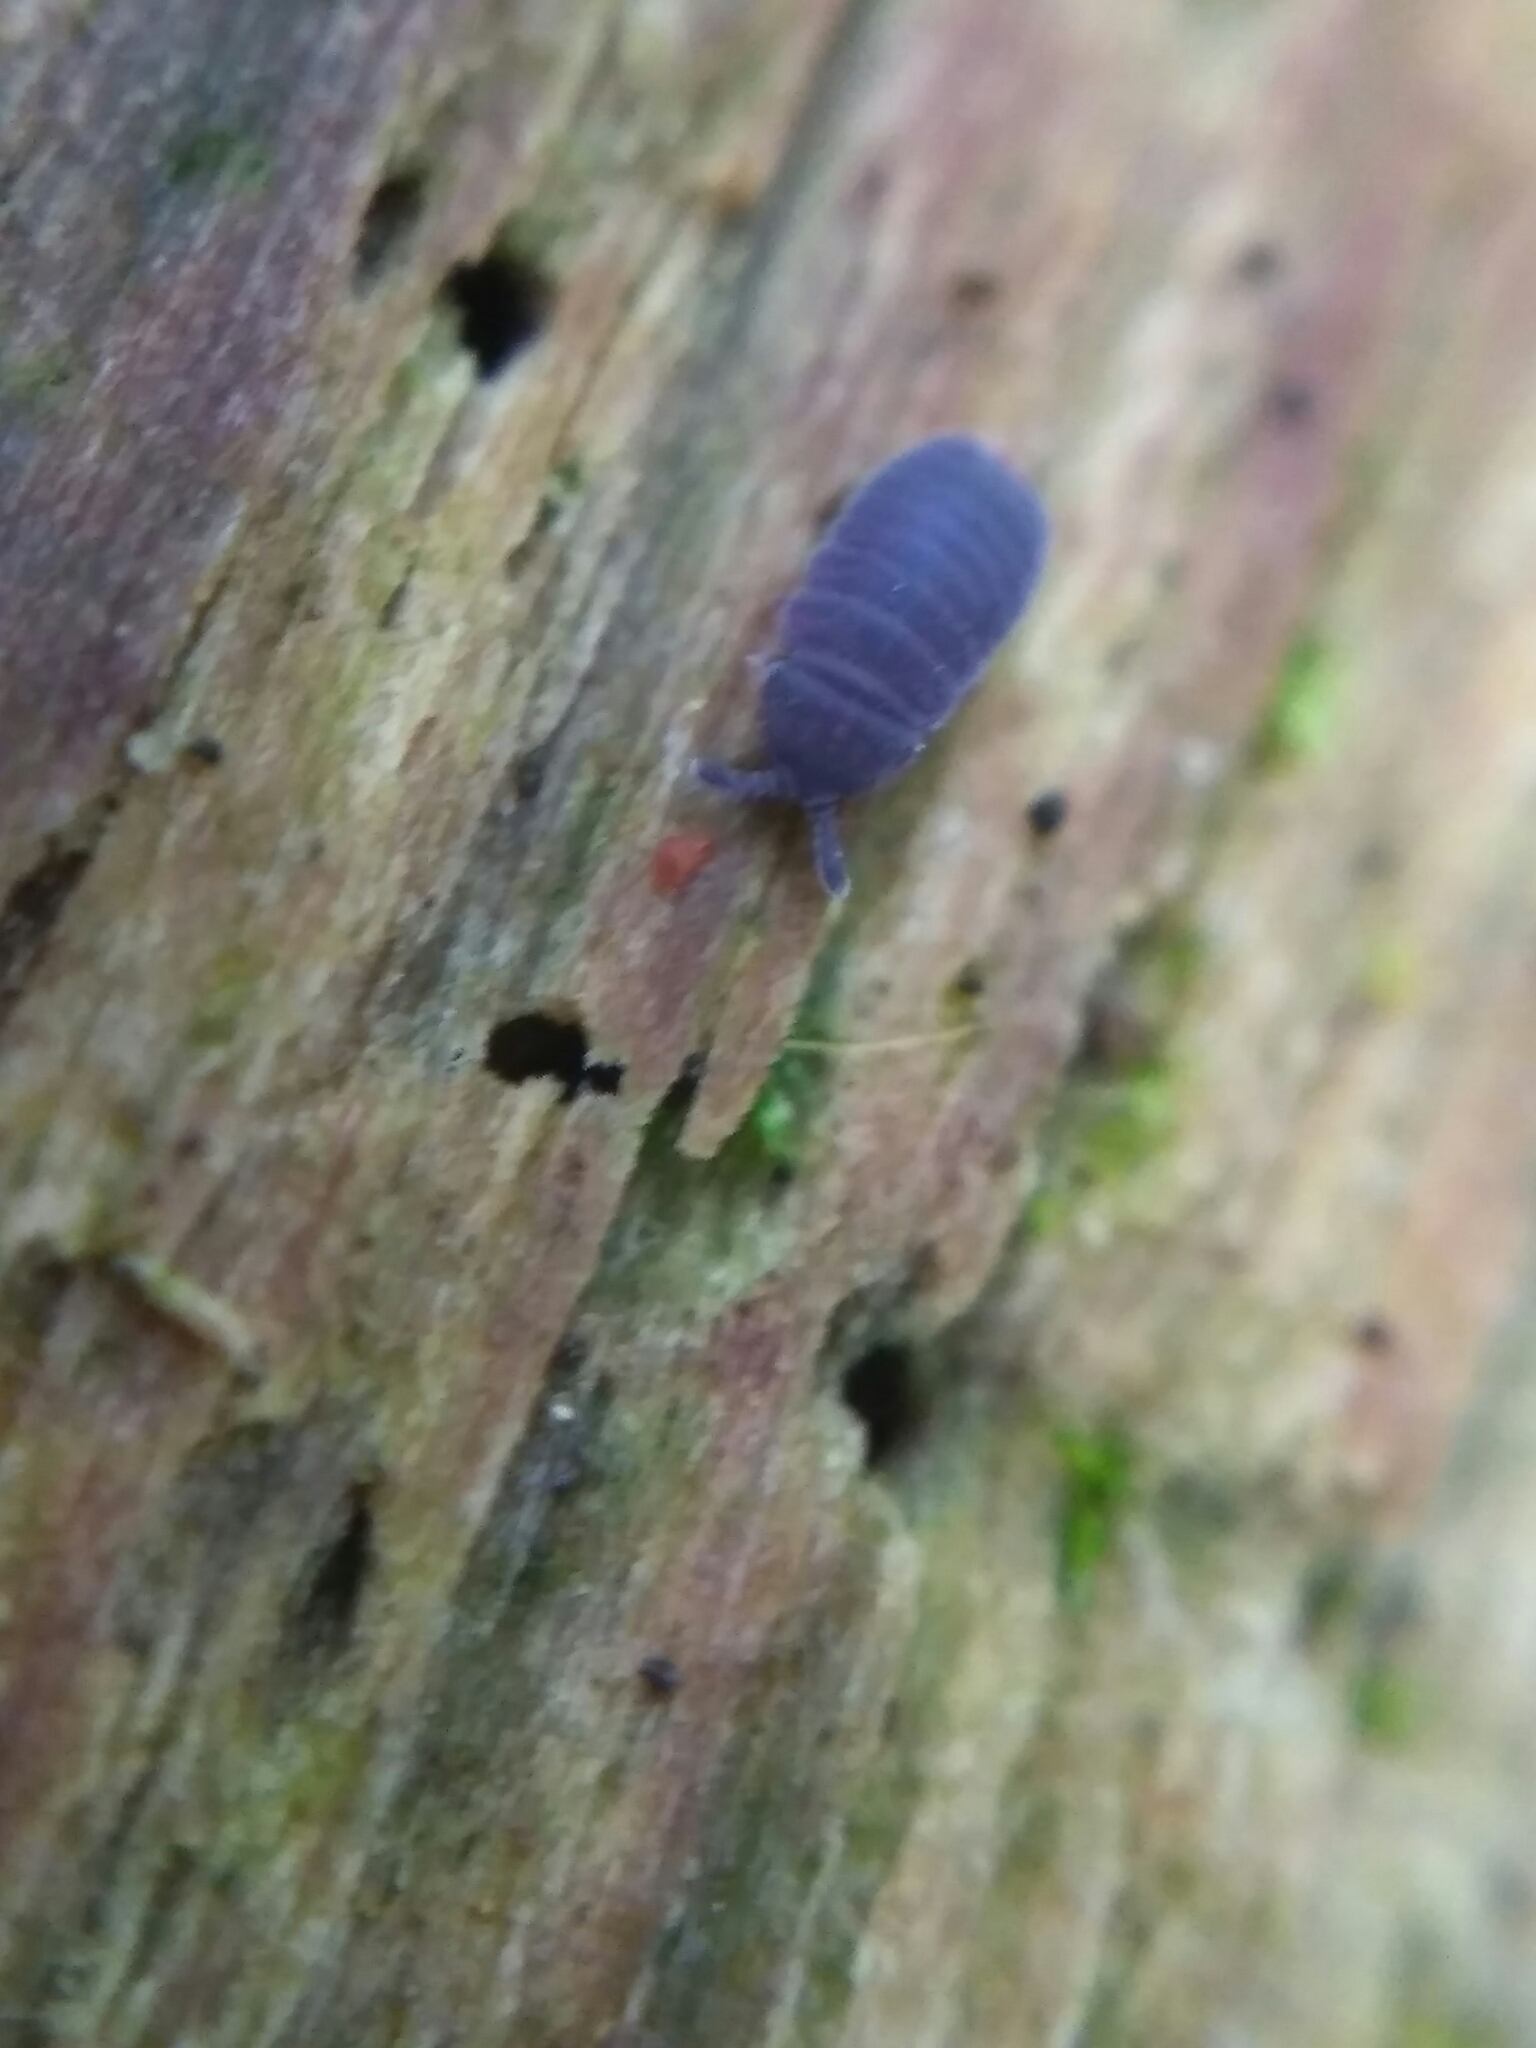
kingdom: Animalia
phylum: Arthropoda
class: Collembola
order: Poduromorpha
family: Onychiuridae
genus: Tetrodontophora
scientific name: Tetrodontophora bielanensis
